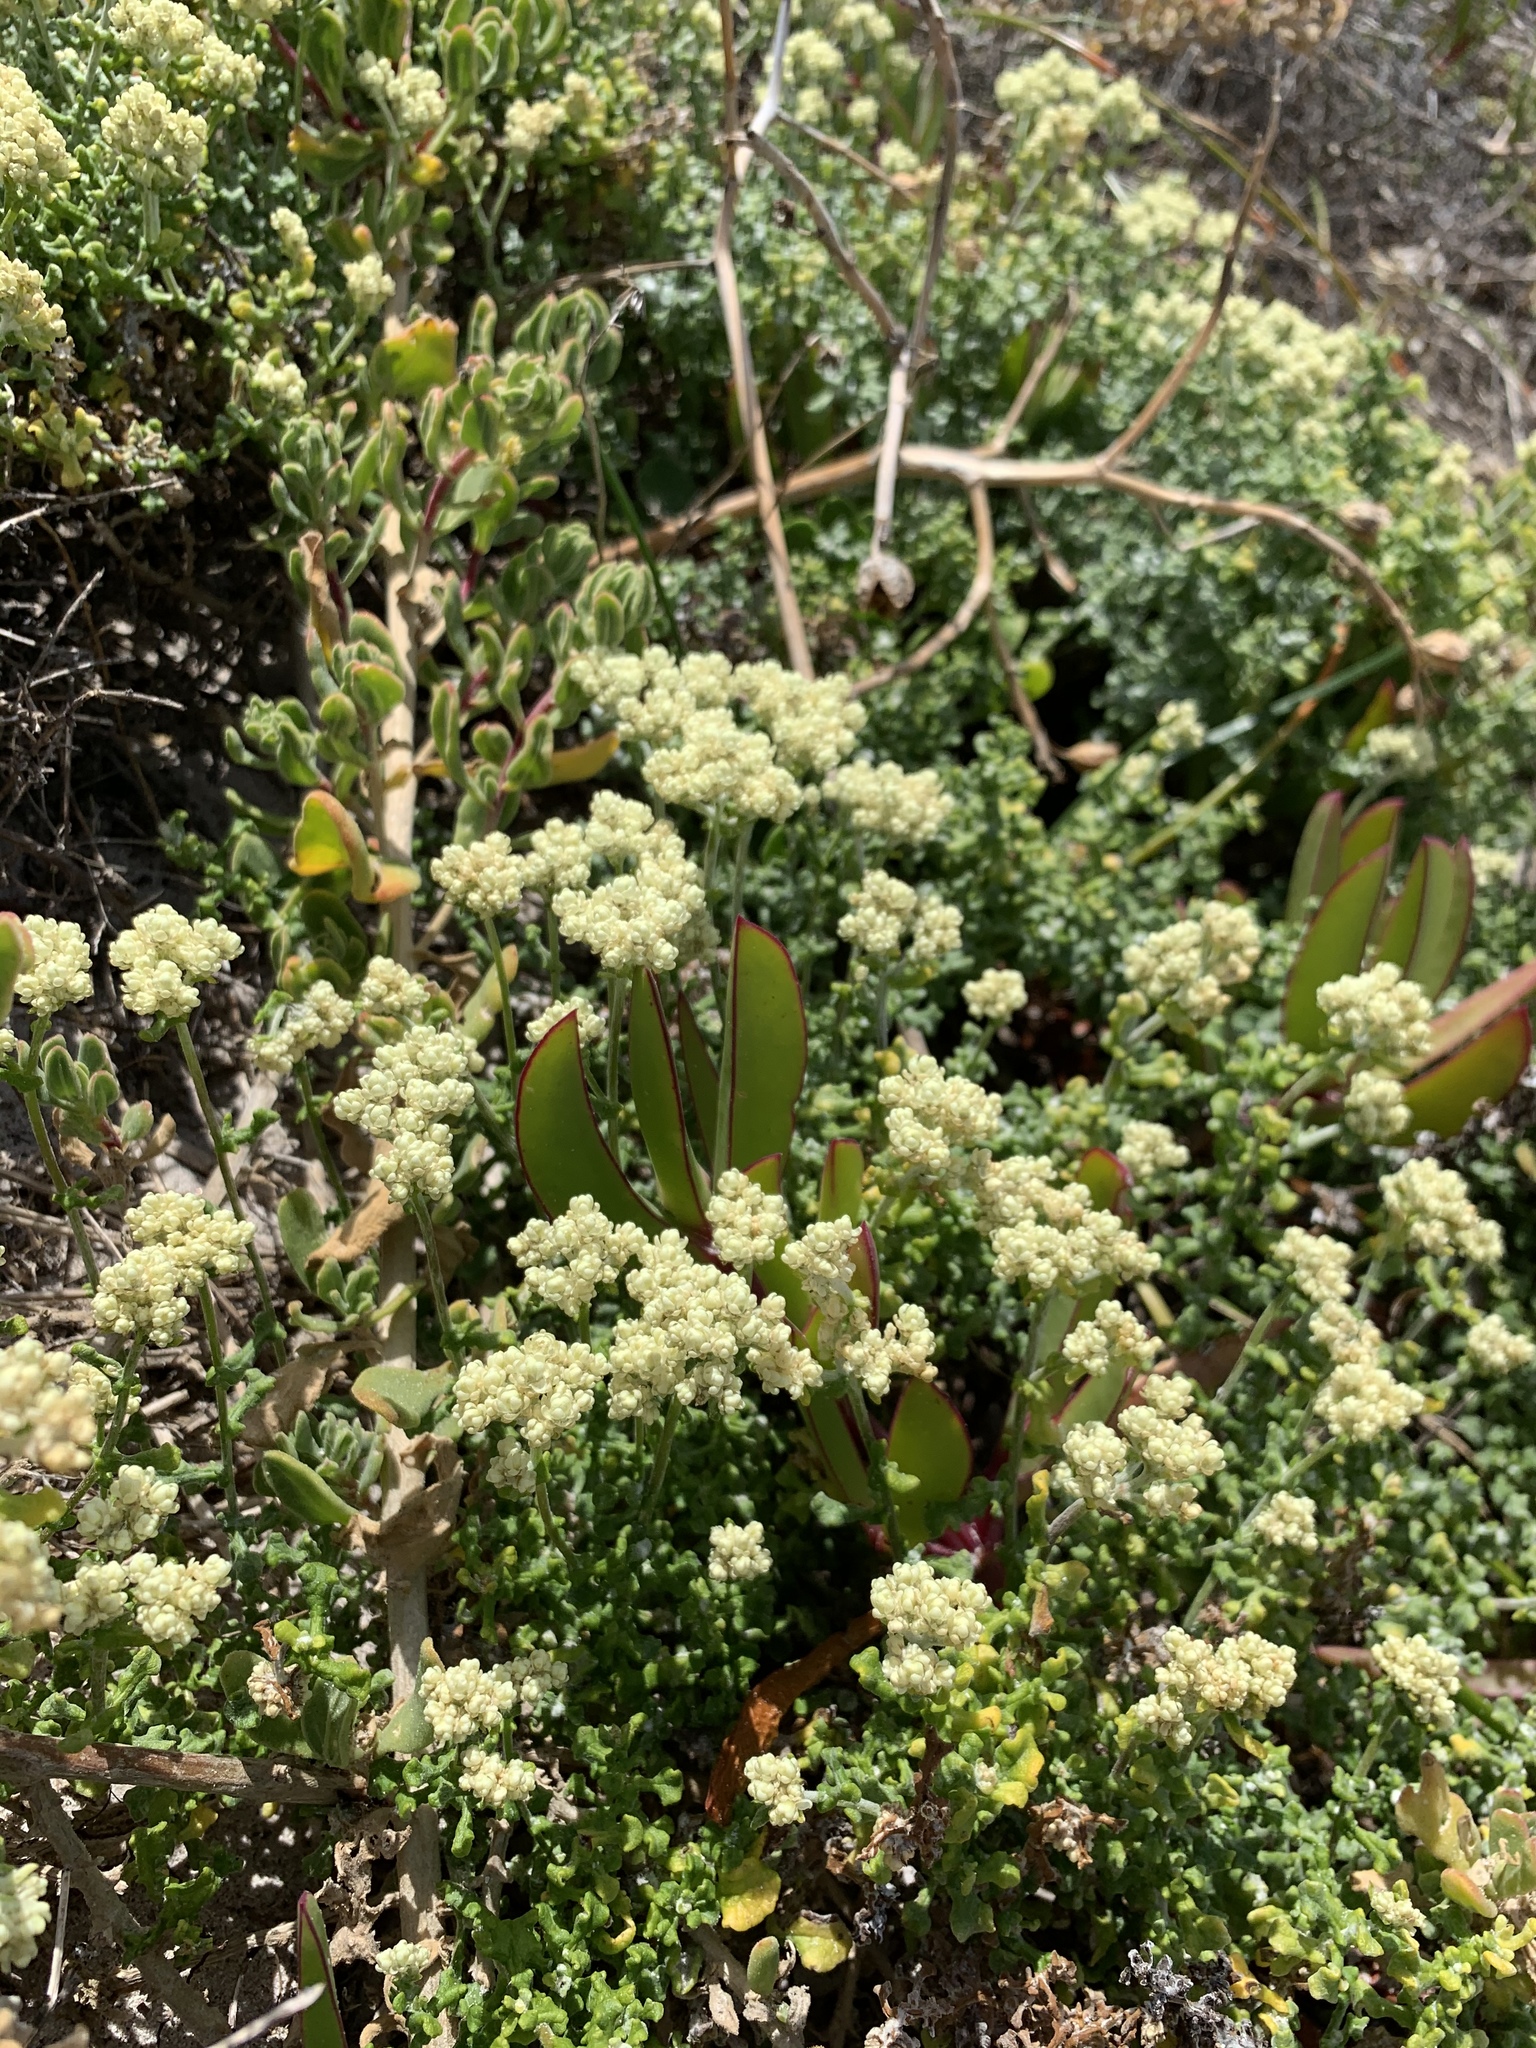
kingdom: Plantae
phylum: Tracheophyta
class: Magnoliopsida
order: Asterales
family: Asteraceae
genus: Helichrysum
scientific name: Helichrysum patulum
